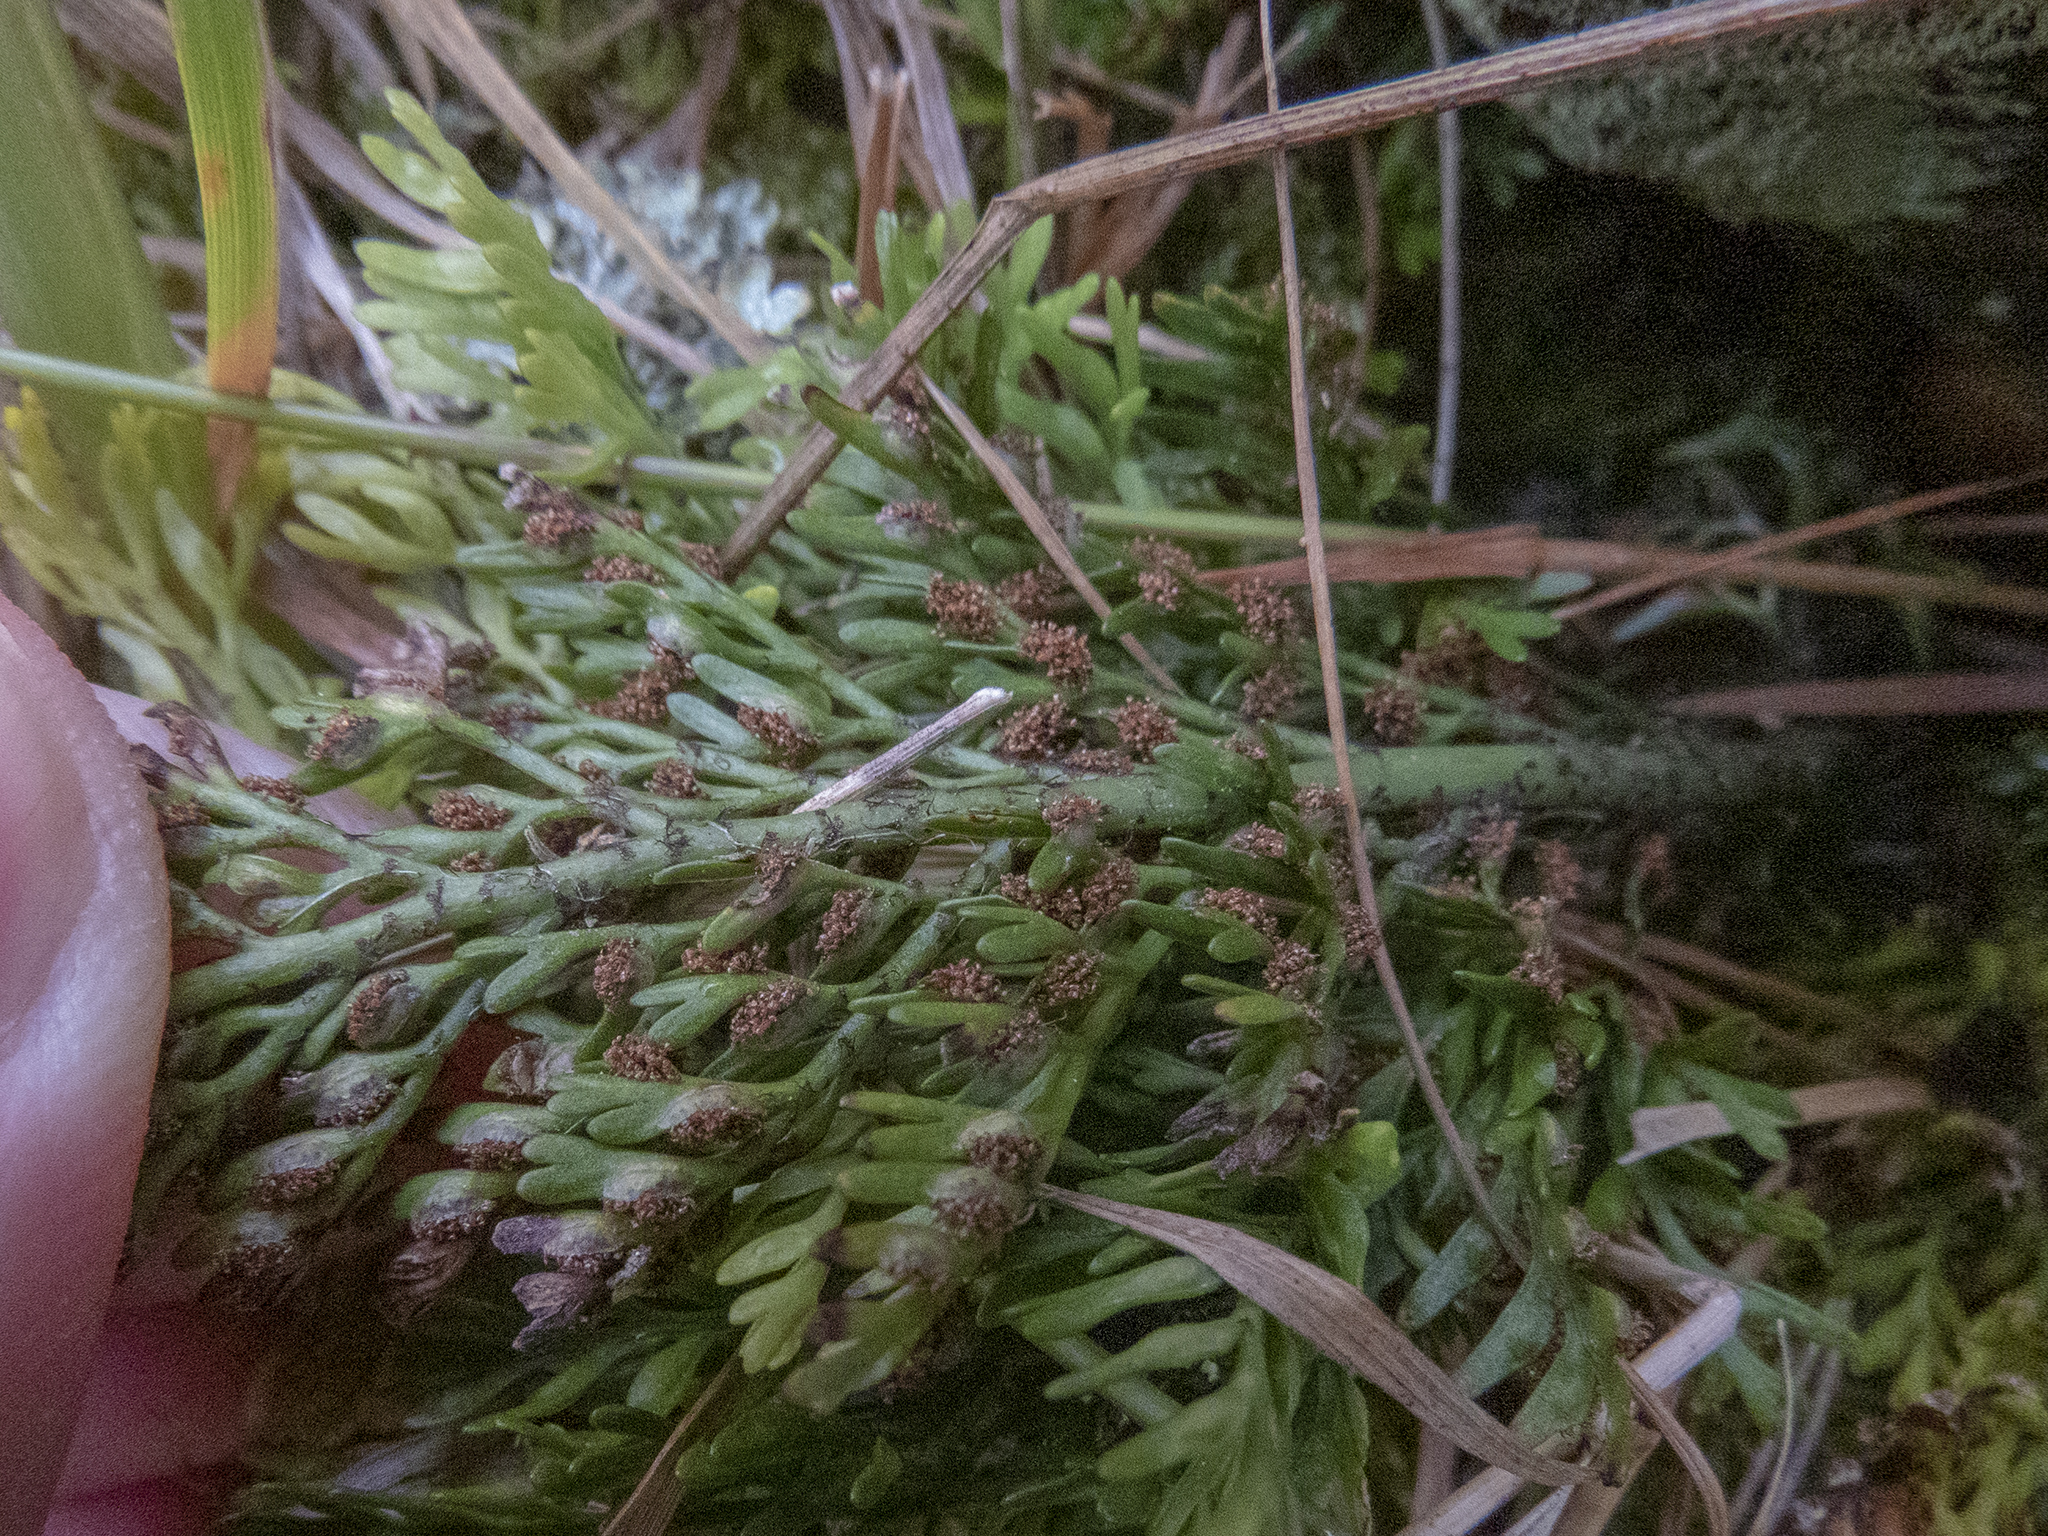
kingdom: Plantae
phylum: Tracheophyta
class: Polypodiopsida
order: Polypodiales
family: Aspleniaceae
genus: Asplenium
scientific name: Asplenium appendiculatum
